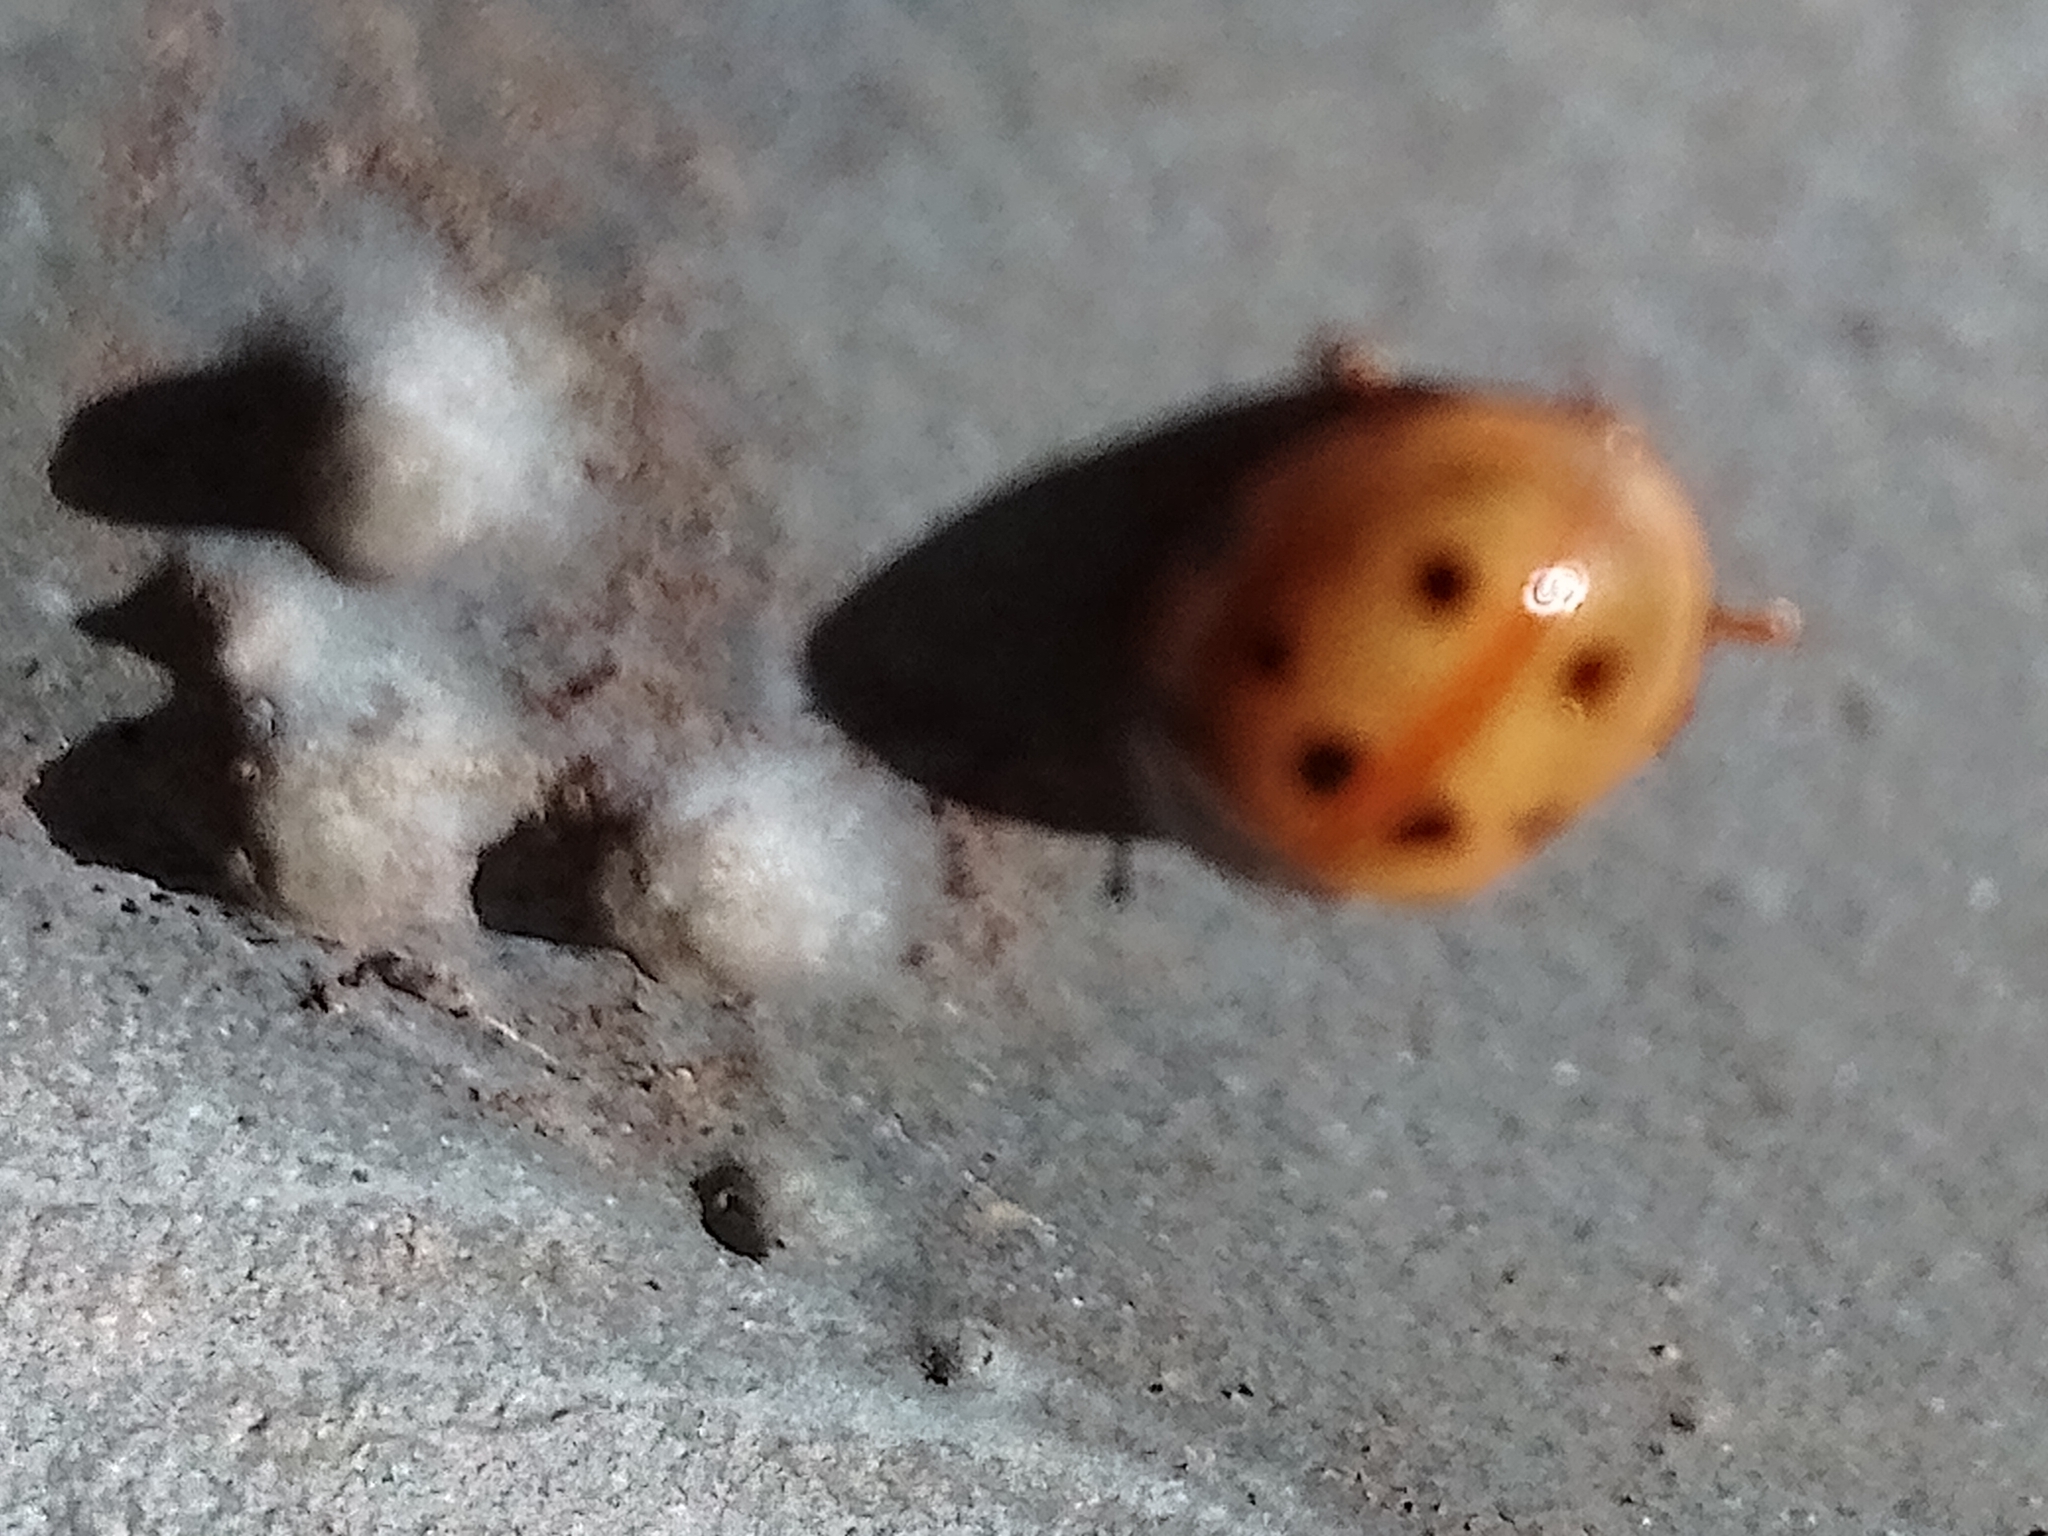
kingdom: Animalia
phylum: Arthropoda
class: Insecta
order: Coleoptera
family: Coccinellidae
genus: Adalia
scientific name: Adalia decempunctata
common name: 10-spot ladybird
